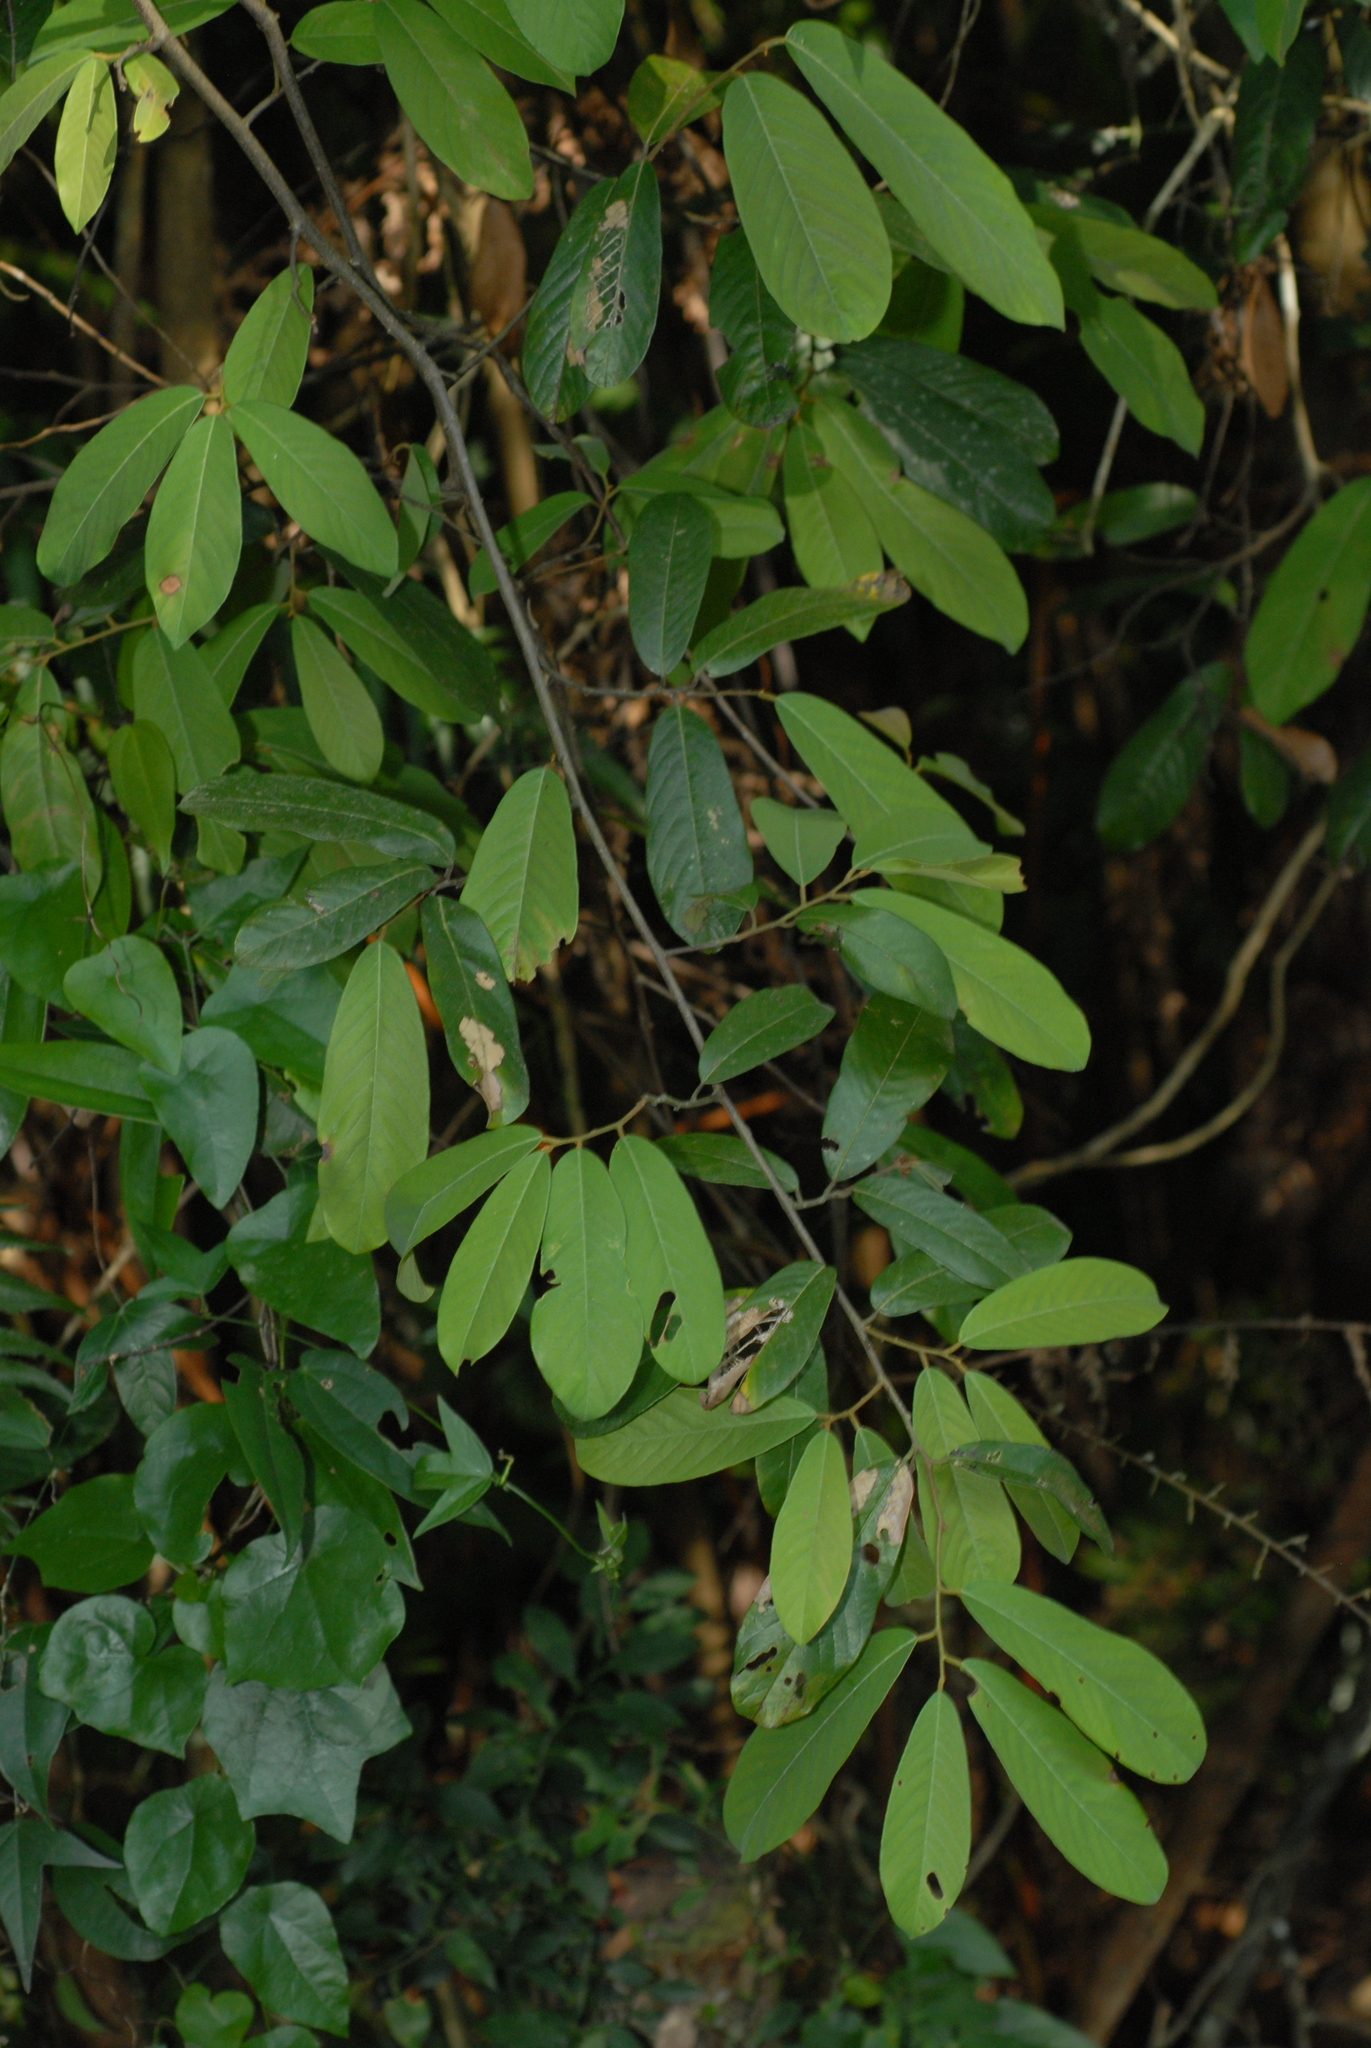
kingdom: Plantae
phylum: Tracheophyta
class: Magnoliopsida
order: Magnoliales
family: Annonaceae
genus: Fissistigma
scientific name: Fissistigma oldhamii
